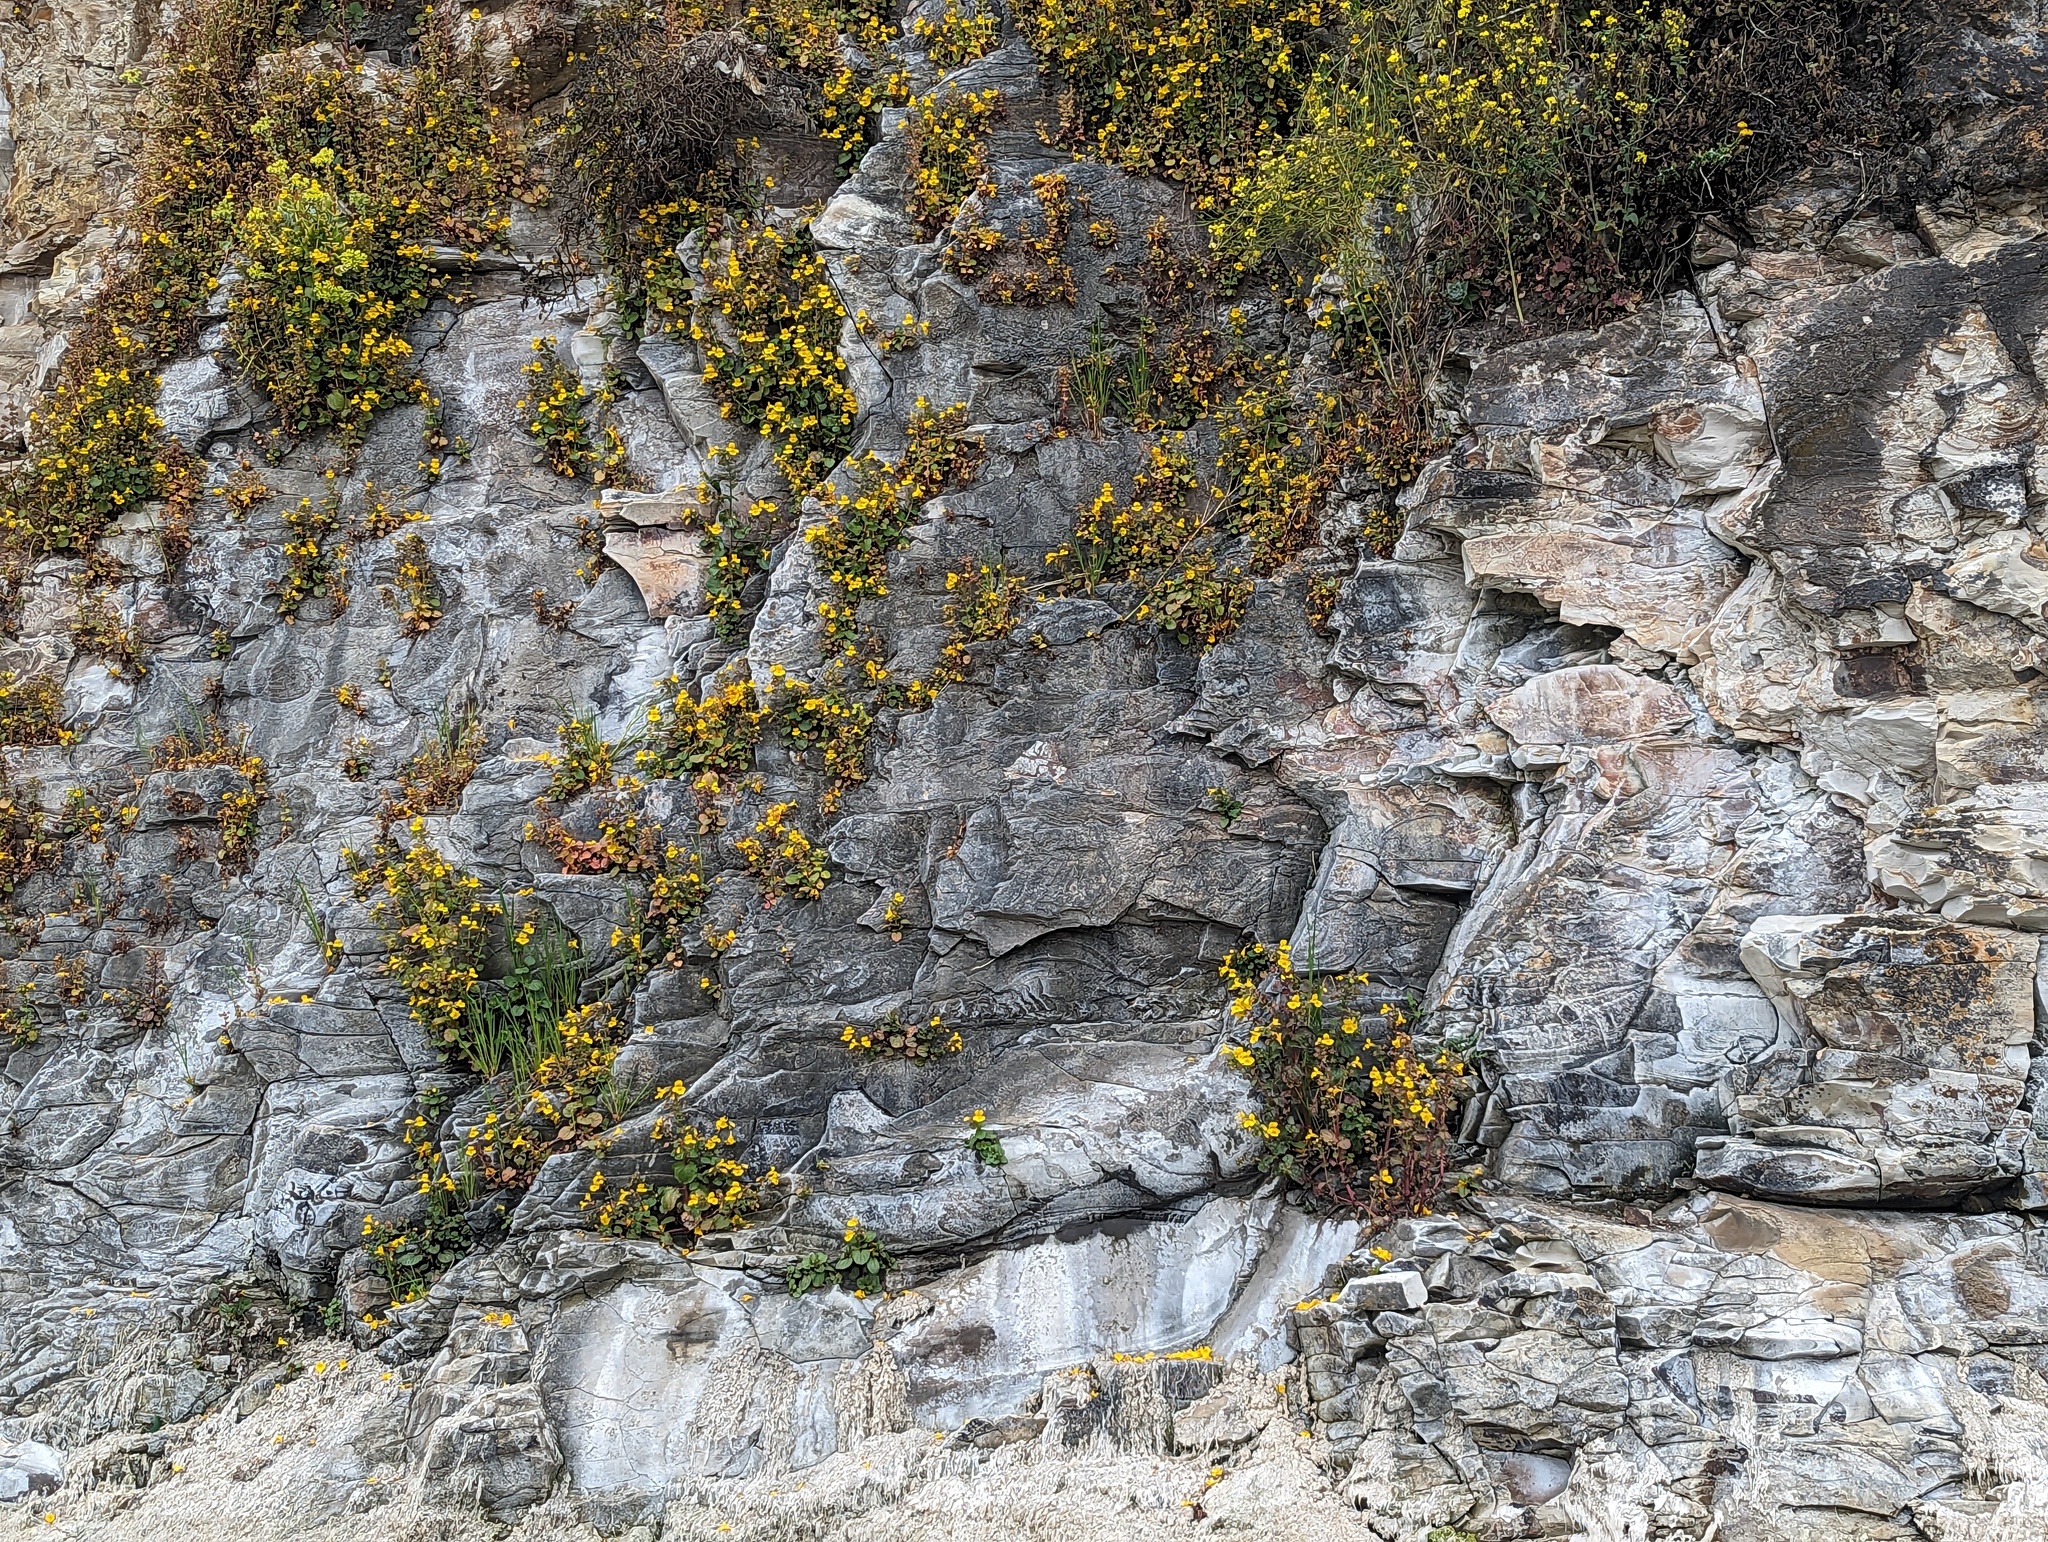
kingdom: Plantae
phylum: Tracheophyta
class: Magnoliopsida
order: Lamiales
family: Phrymaceae
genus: Erythranthe
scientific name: Erythranthe grandis
